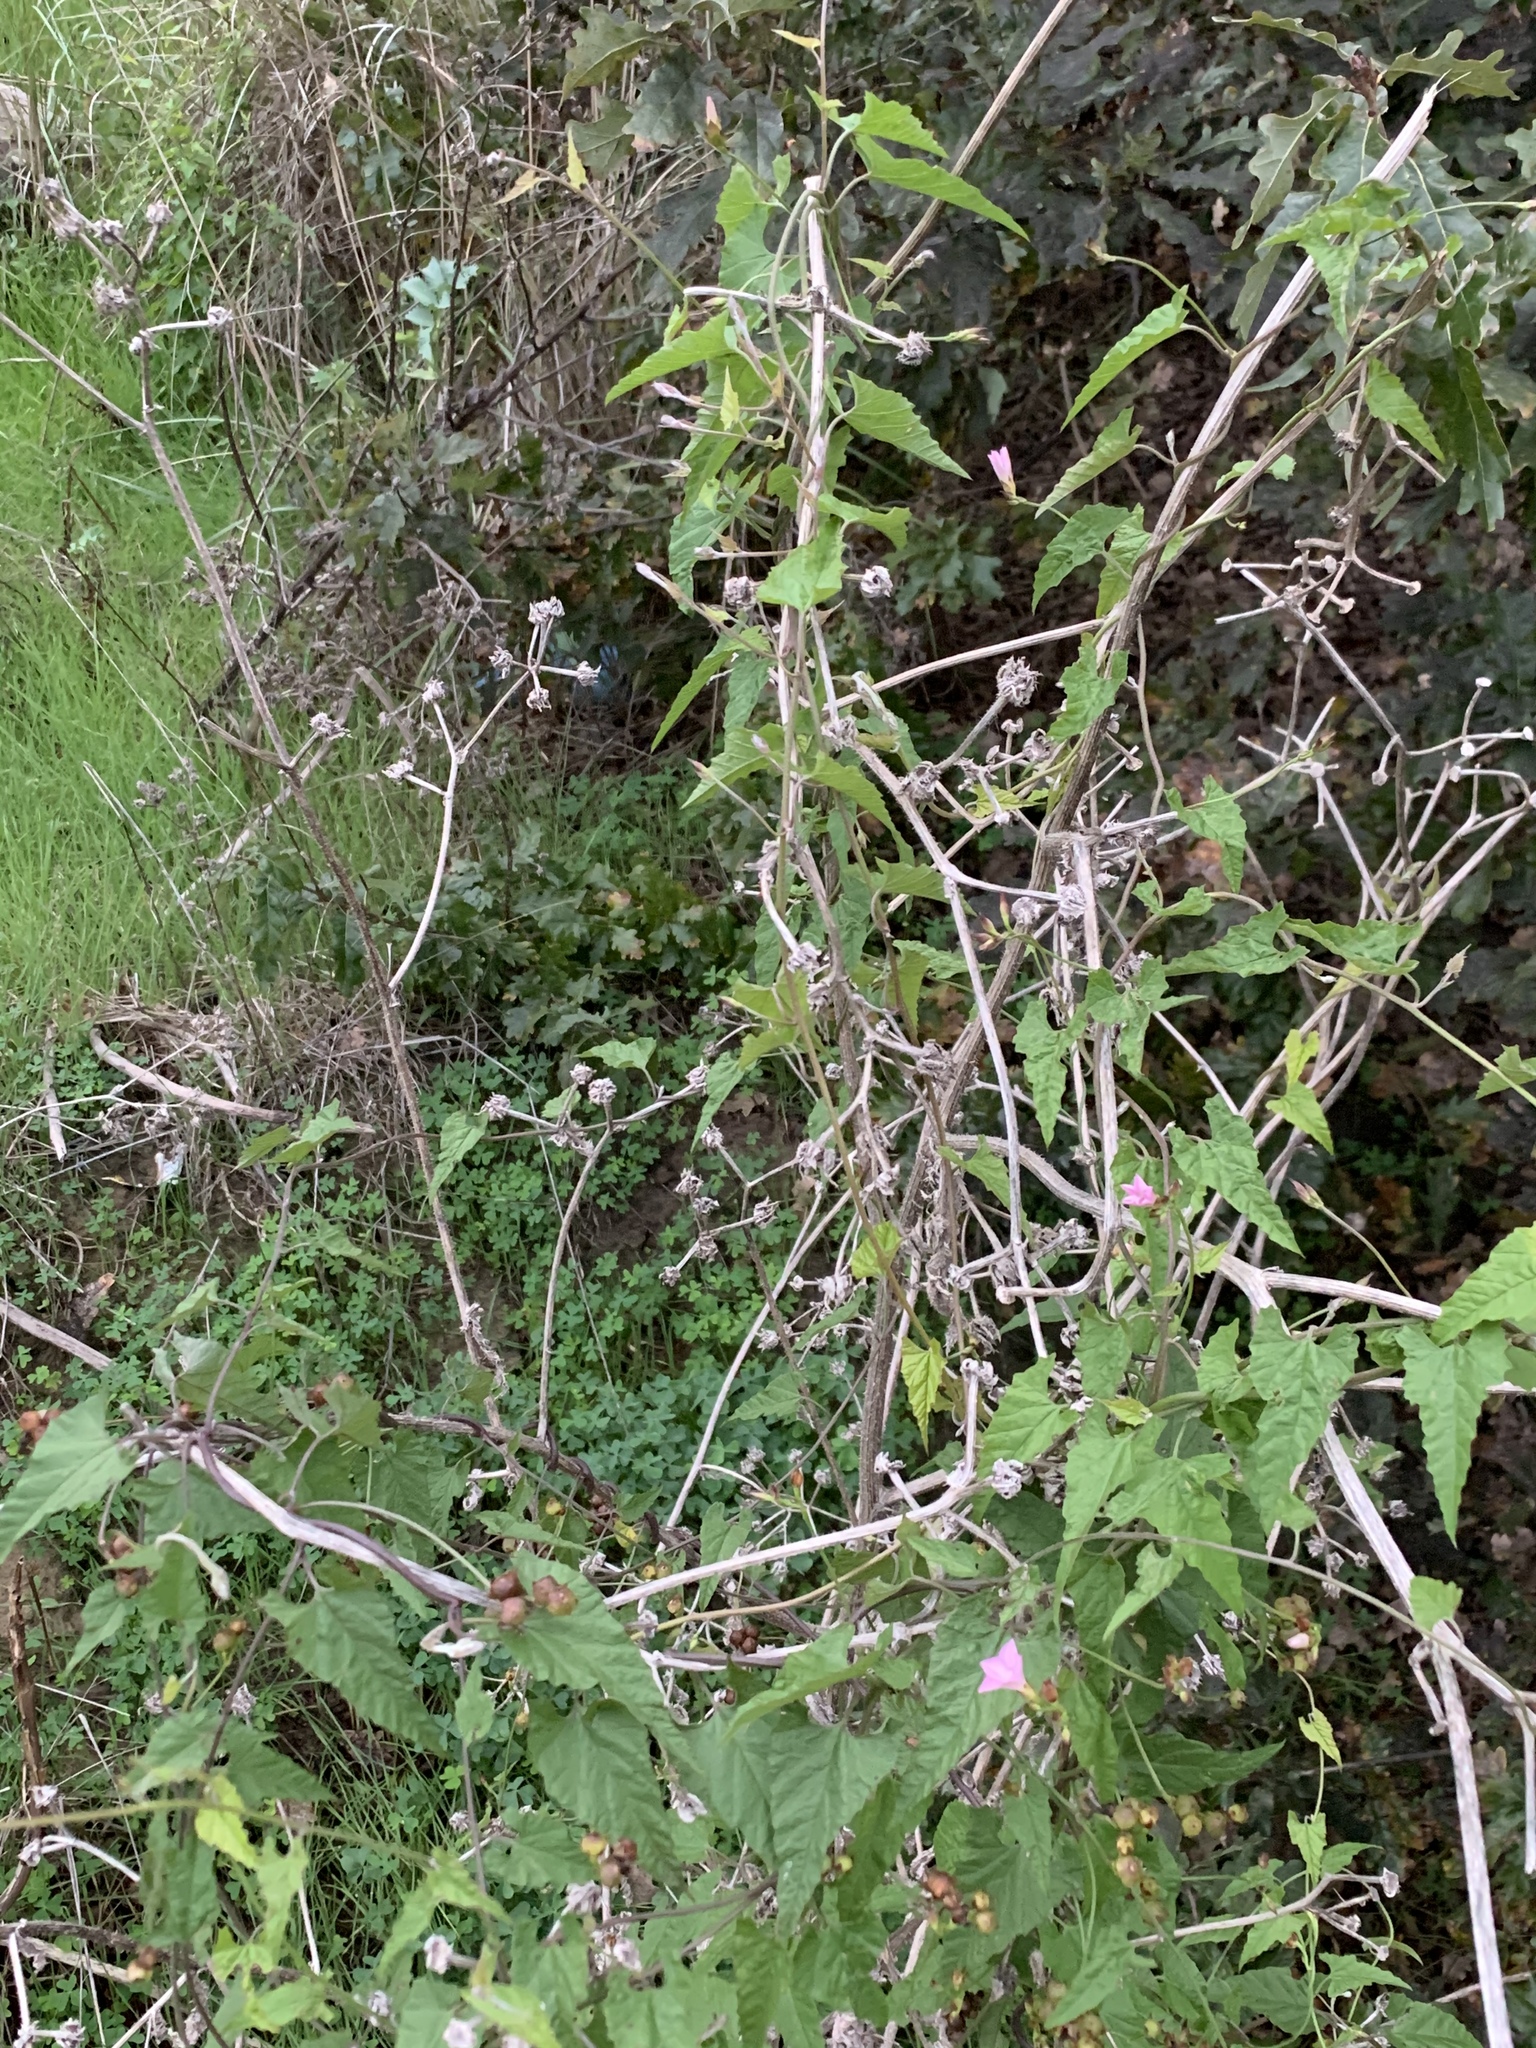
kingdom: Plantae
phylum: Tracheophyta
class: Magnoliopsida
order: Solanales
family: Convolvulaceae
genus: Convolvulus
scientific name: Convolvulus farinosus
